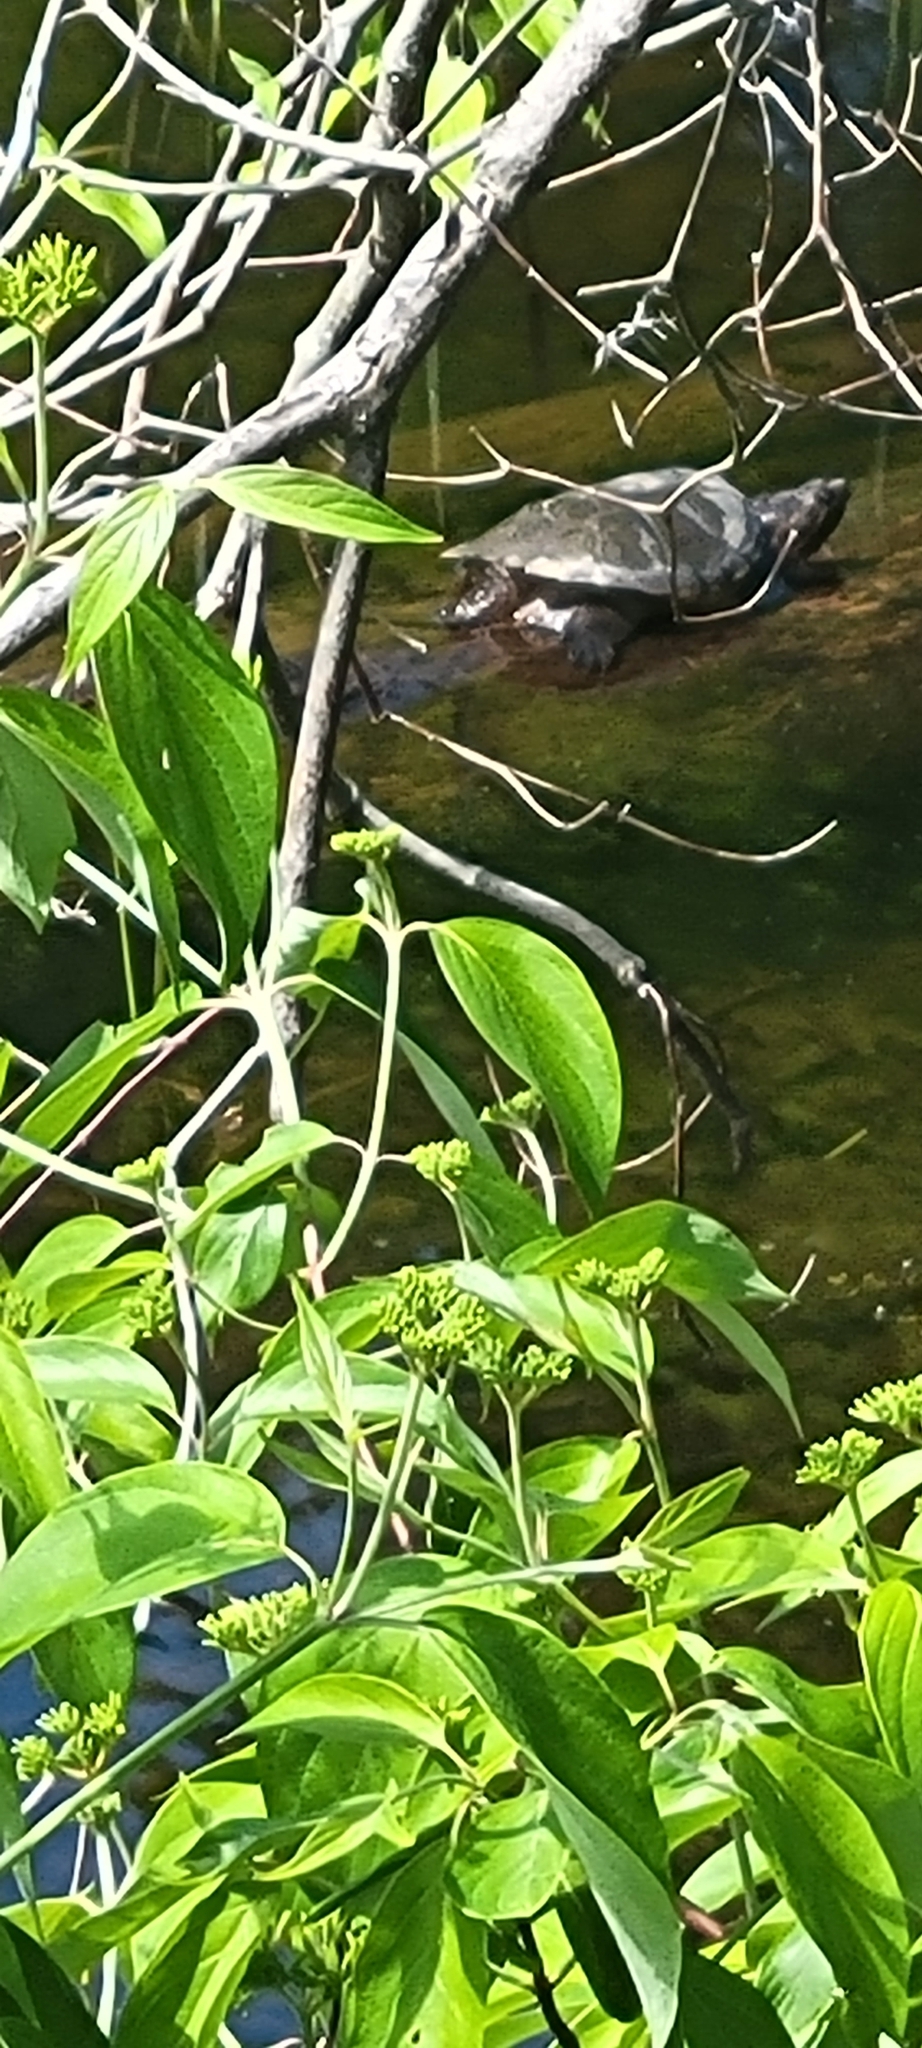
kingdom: Animalia
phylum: Chordata
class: Testudines
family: Chelydridae
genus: Chelydra
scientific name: Chelydra serpentina
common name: Common snapping turtle
